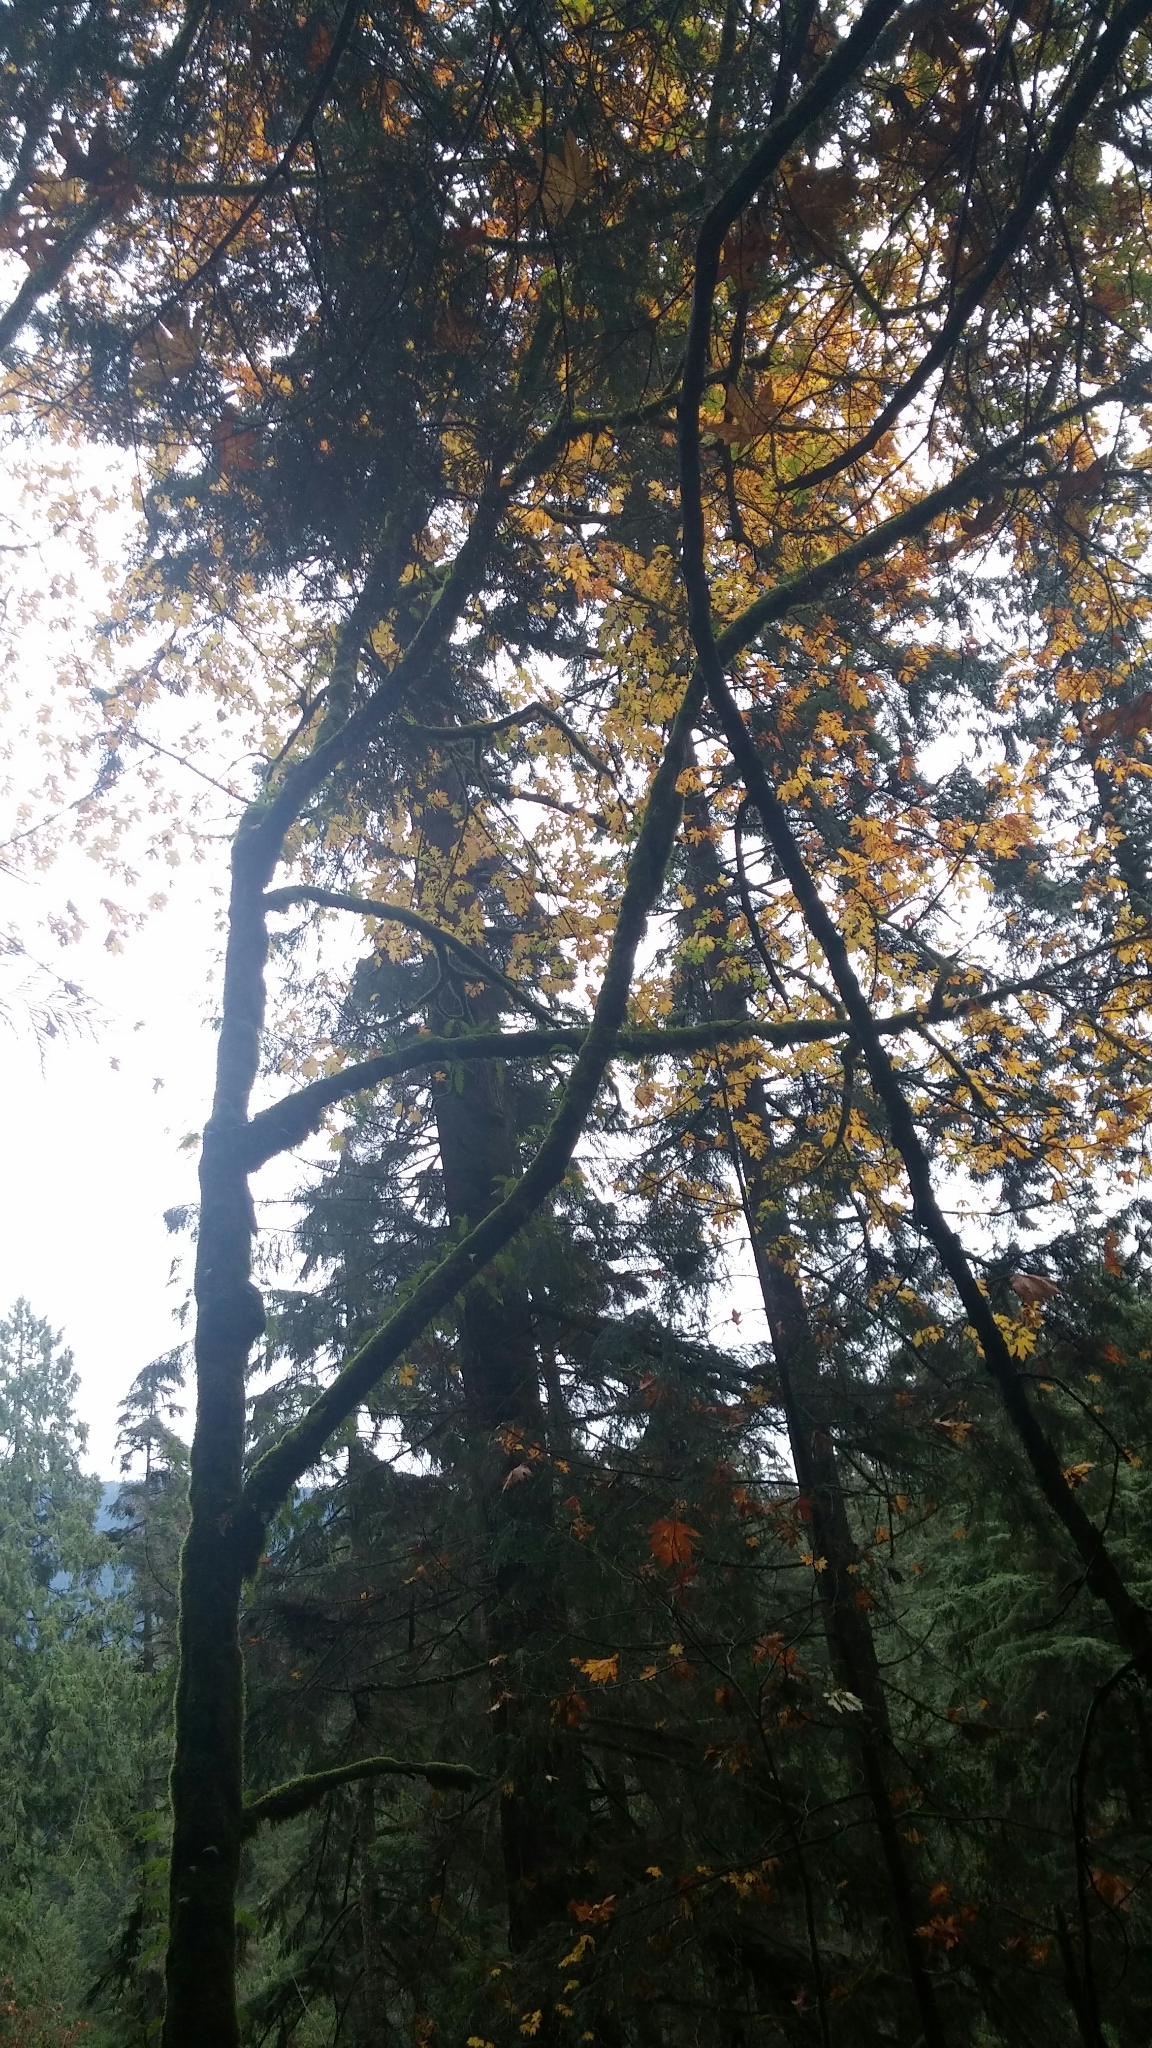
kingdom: Plantae
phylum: Tracheophyta
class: Magnoliopsida
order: Sapindales
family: Sapindaceae
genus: Acer
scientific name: Acer macrophyllum
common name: Oregon maple
